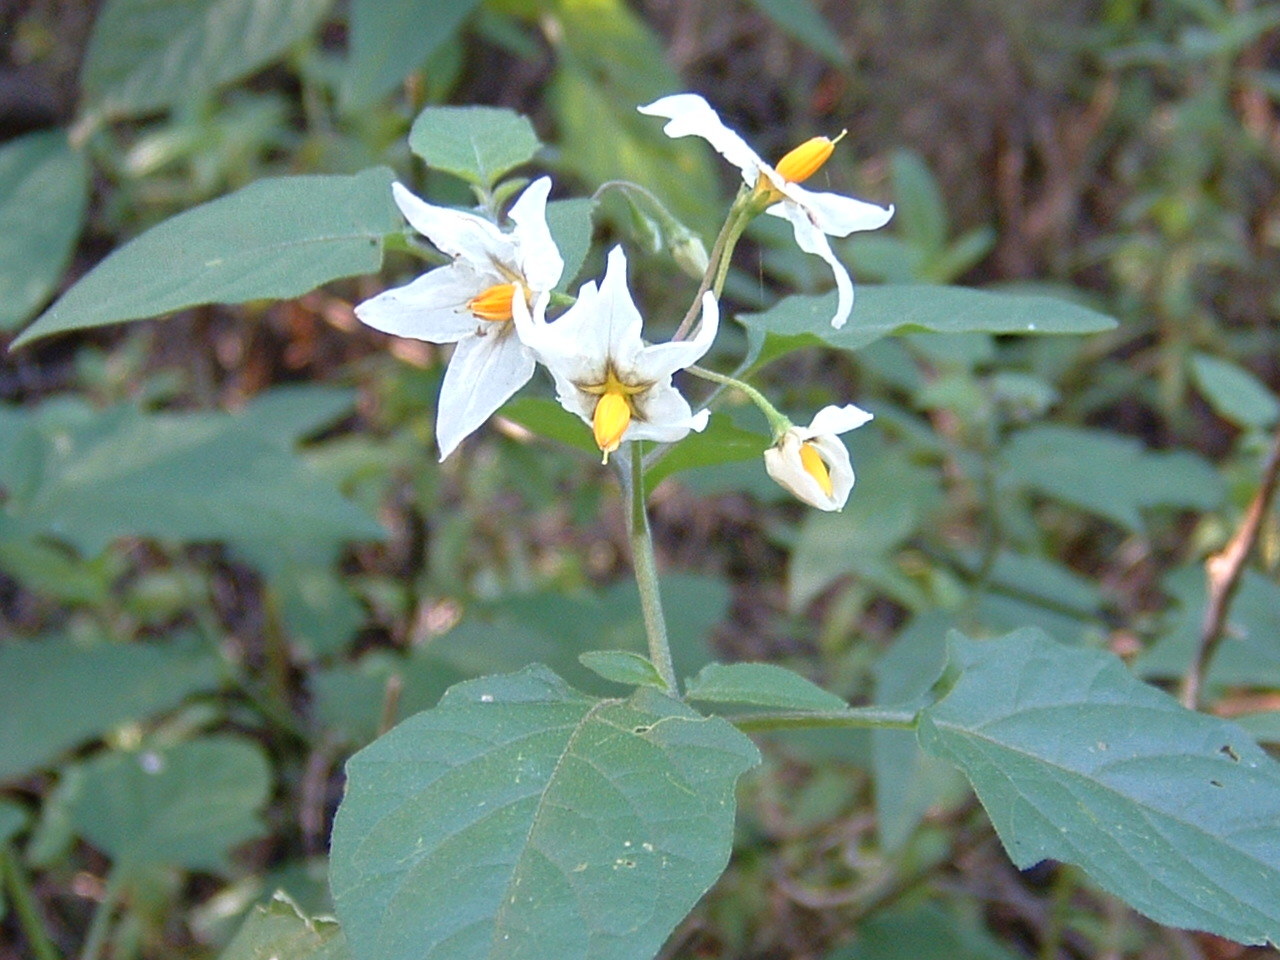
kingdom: Plantae
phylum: Tracheophyta
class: Magnoliopsida
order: Solanales
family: Solanaceae
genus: Solanum
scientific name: Solanum douglasii
